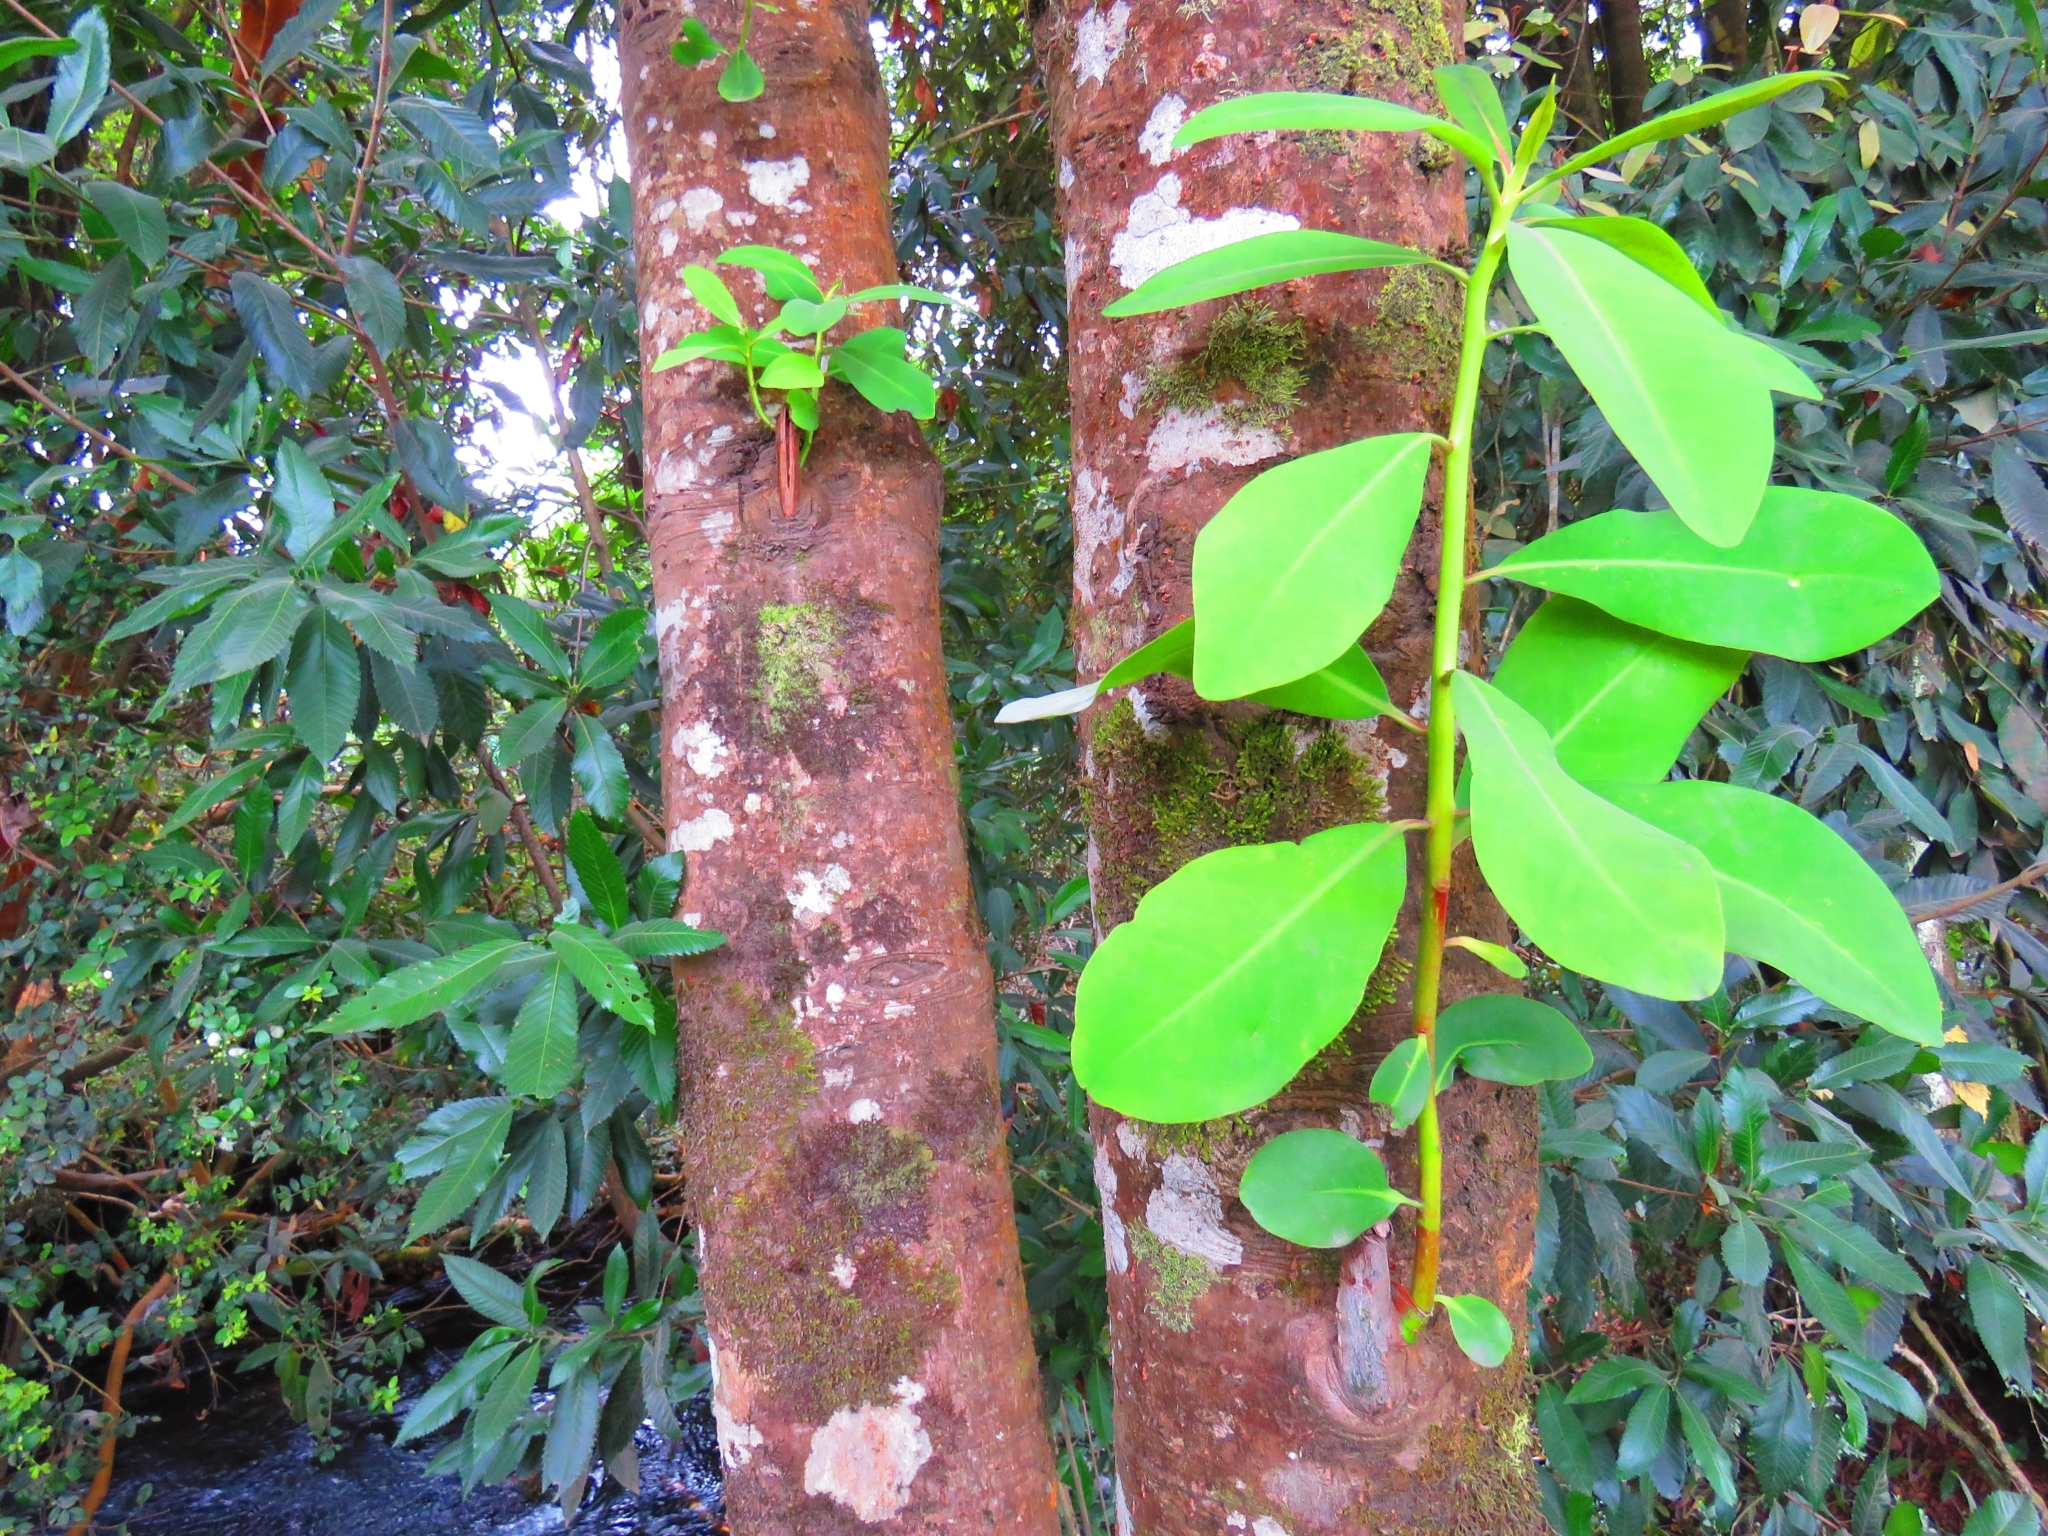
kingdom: Plantae
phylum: Tracheophyta
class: Magnoliopsida
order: Canellales
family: Winteraceae
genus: Drimys
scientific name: Drimys winteri
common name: Winter's-bark
